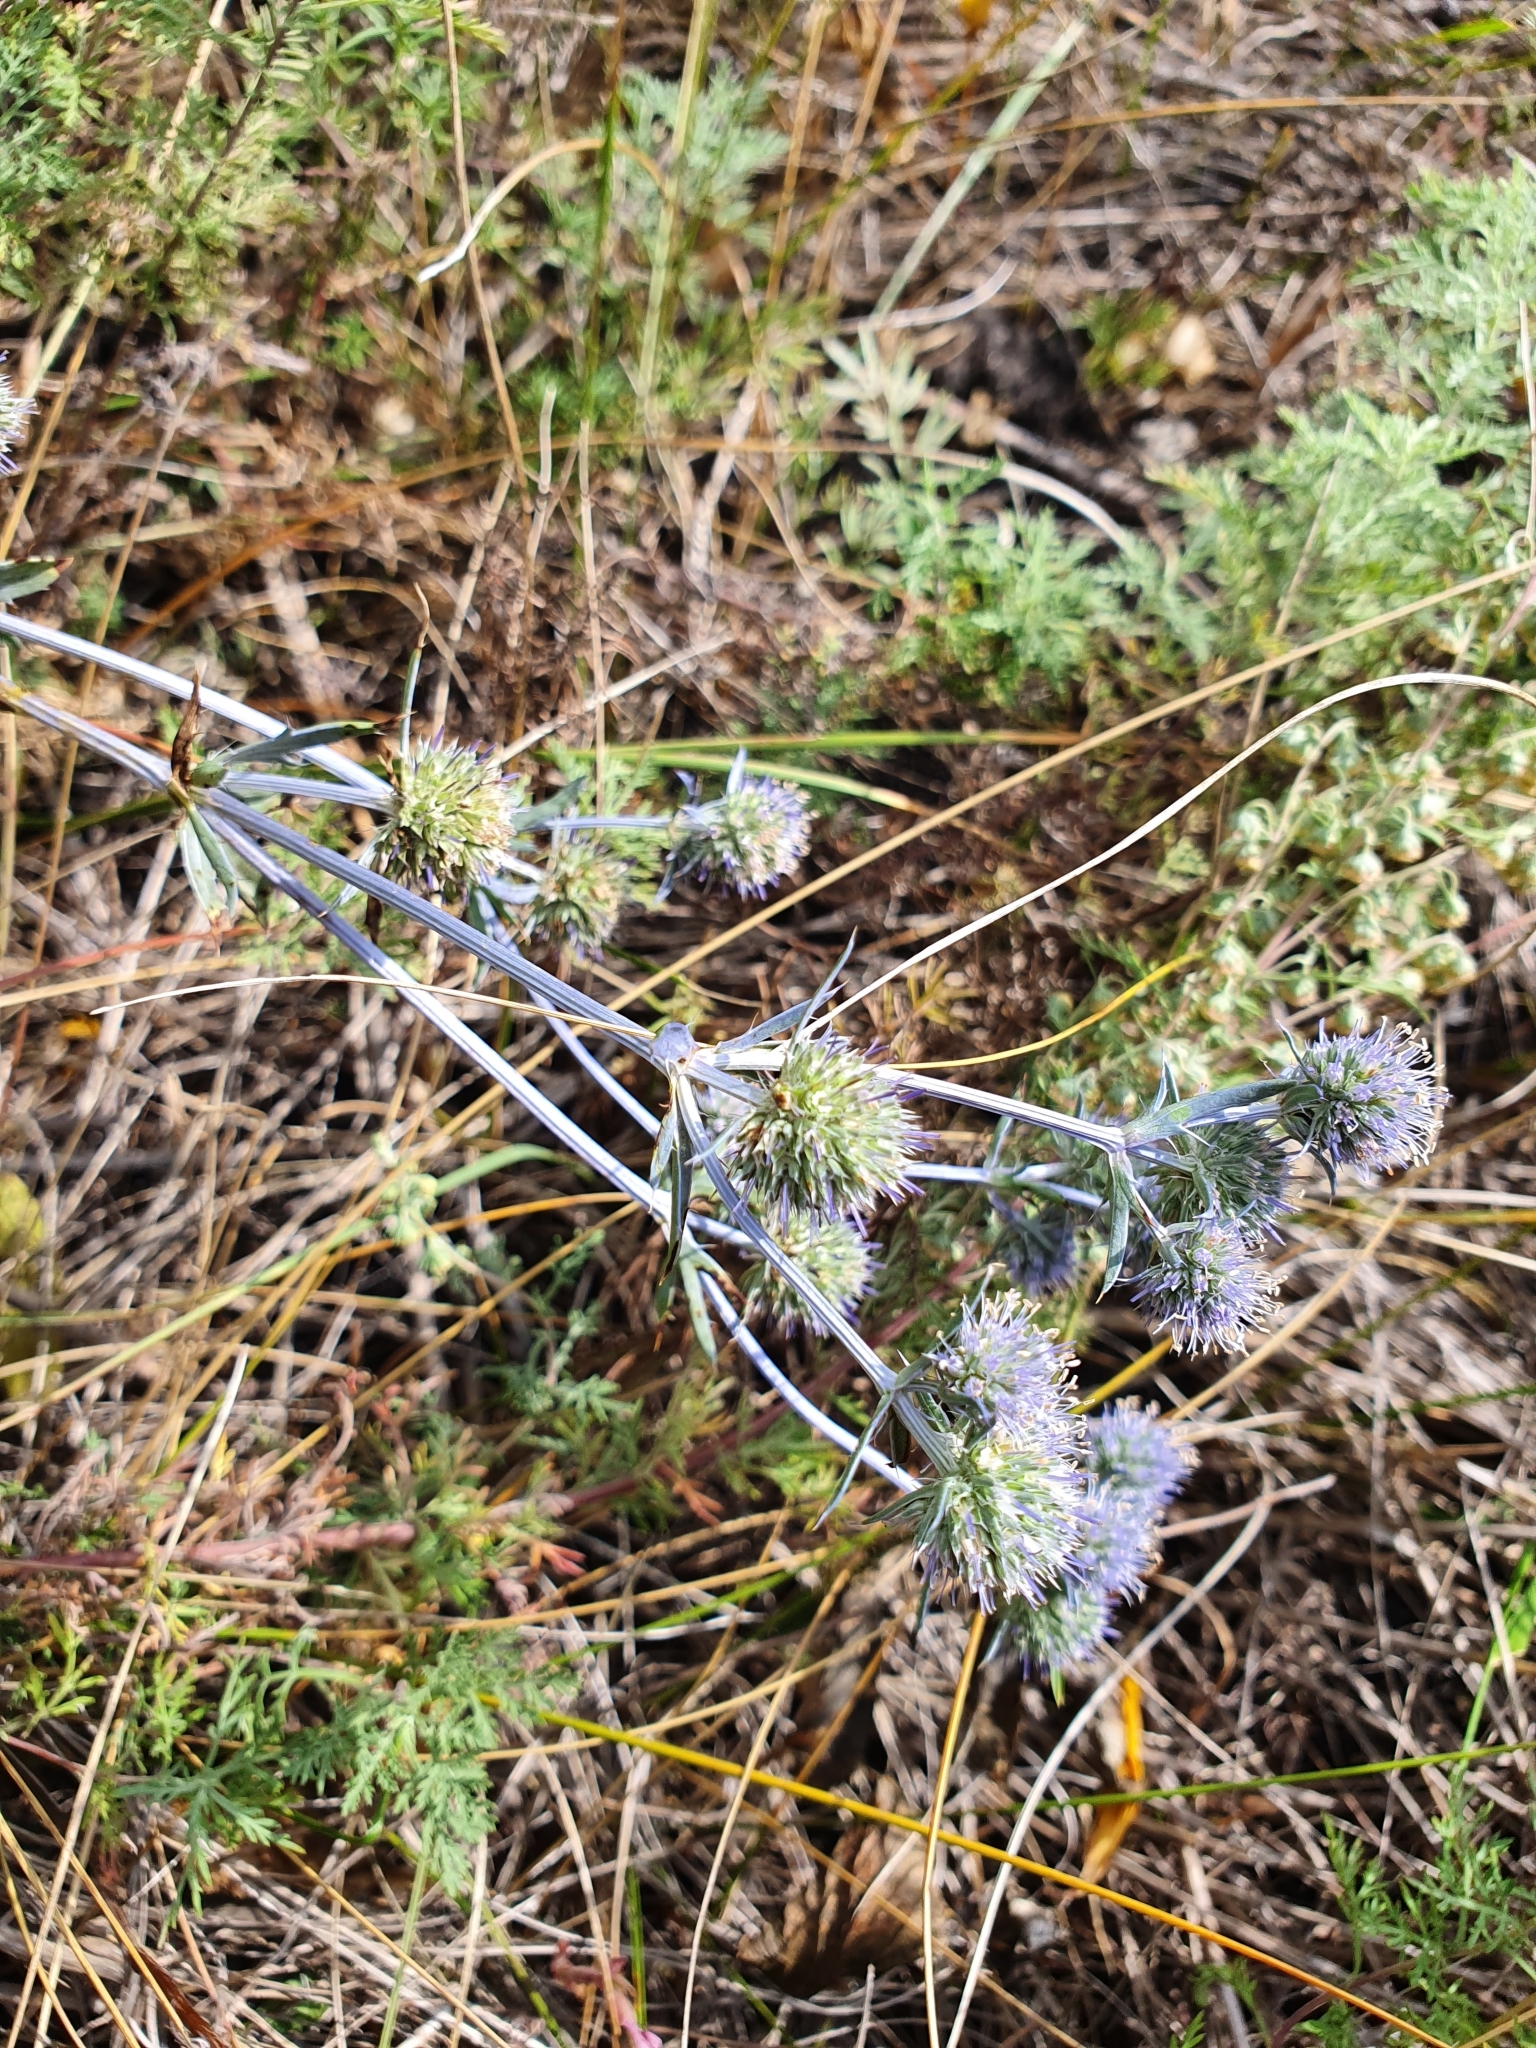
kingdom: Plantae
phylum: Tracheophyta
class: Magnoliopsida
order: Apiales
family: Apiaceae
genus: Eryngium
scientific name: Eryngium planum
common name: Blue eryngo
